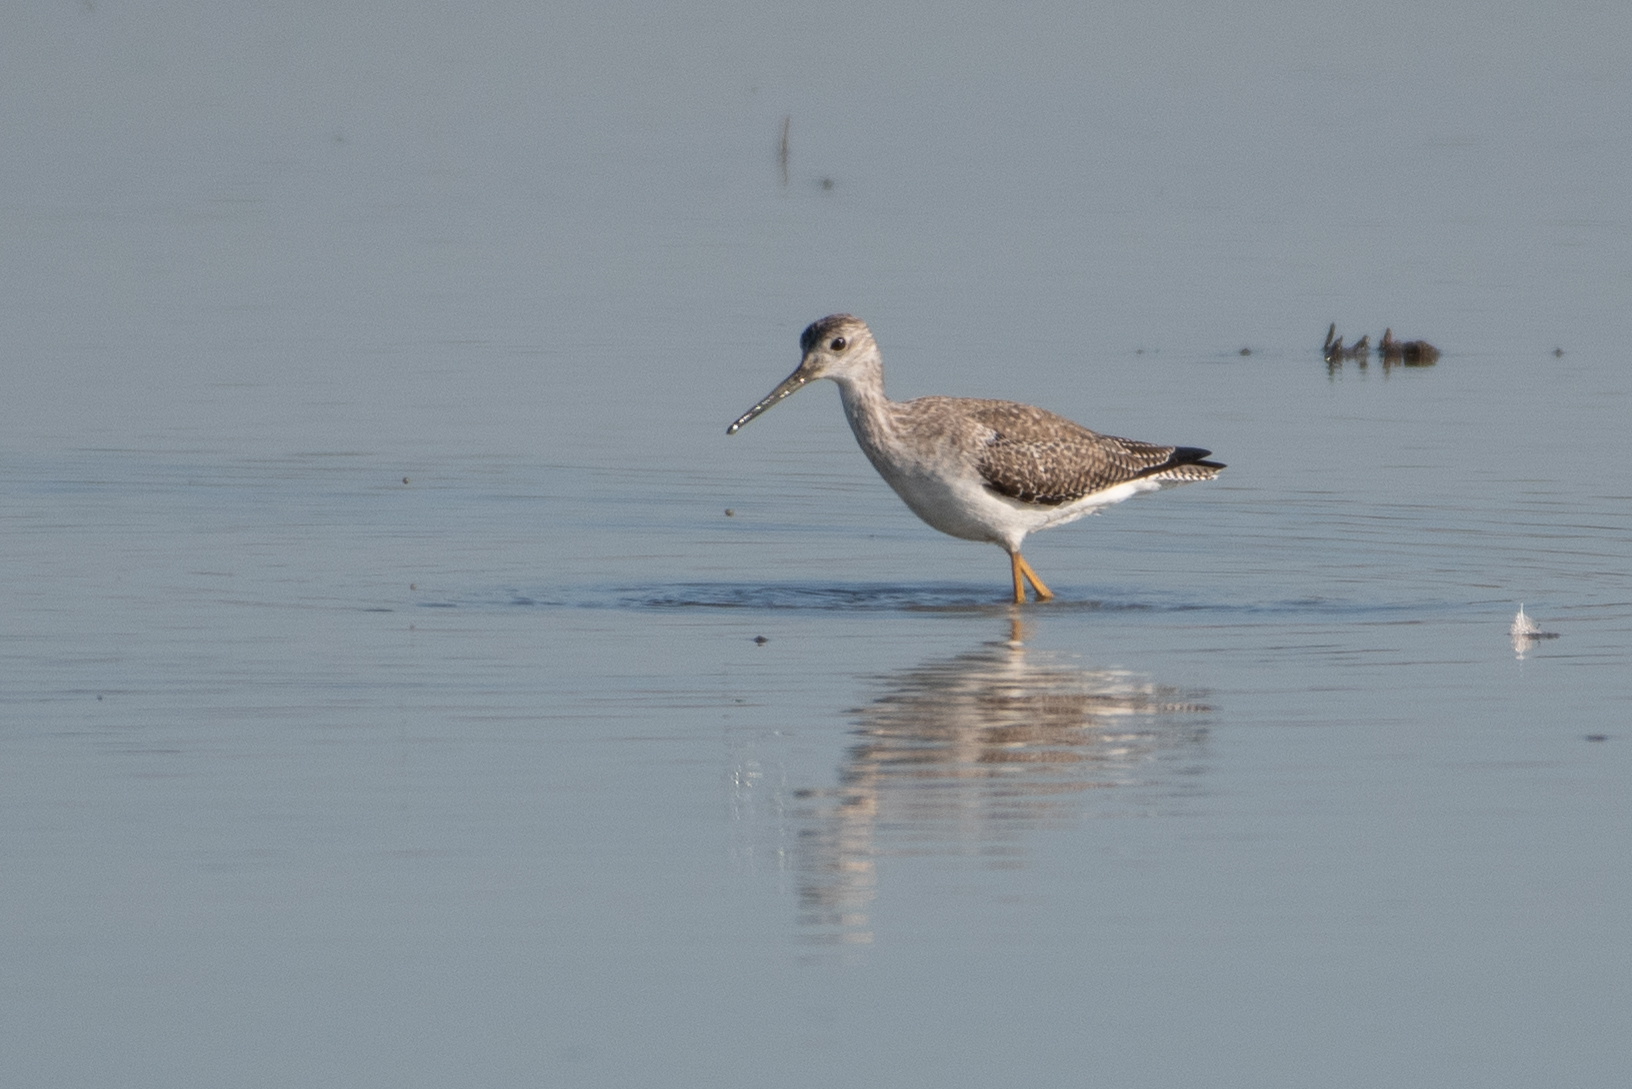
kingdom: Animalia
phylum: Chordata
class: Aves
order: Charadriiformes
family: Scolopacidae
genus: Tringa
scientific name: Tringa melanoleuca
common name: Greater yellowlegs
